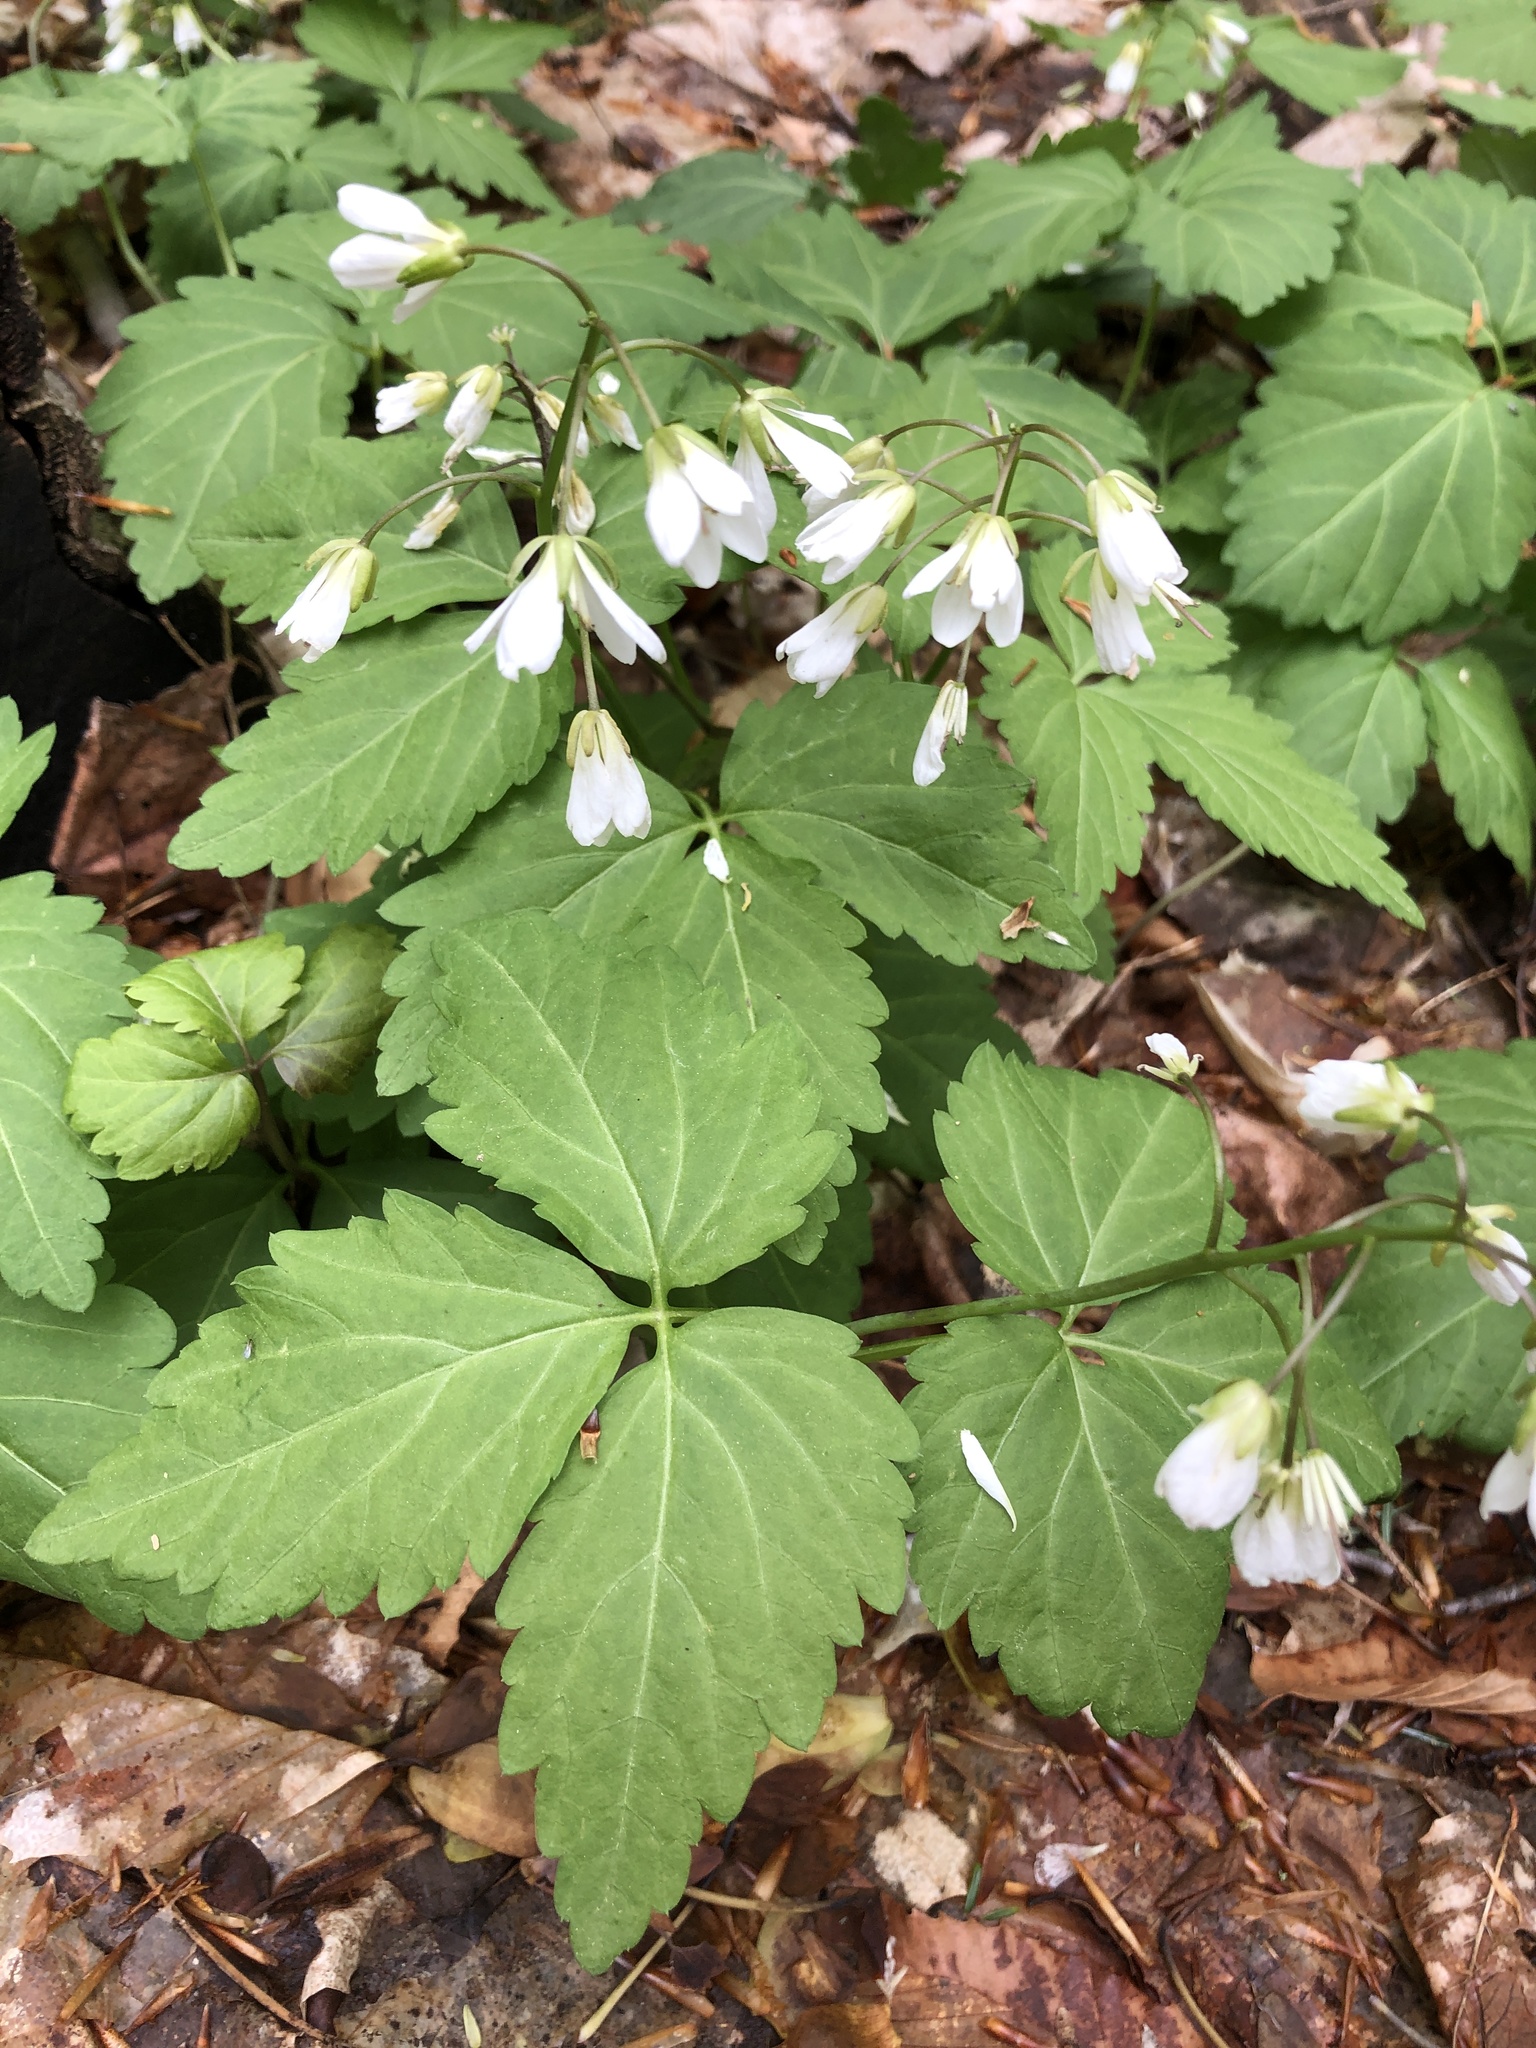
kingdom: Plantae
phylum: Tracheophyta
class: Magnoliopsida
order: Brassicales
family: Brassicaceae
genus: Cardamine
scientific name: Cardamine diphylla
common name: Broad-leaved toothwort
